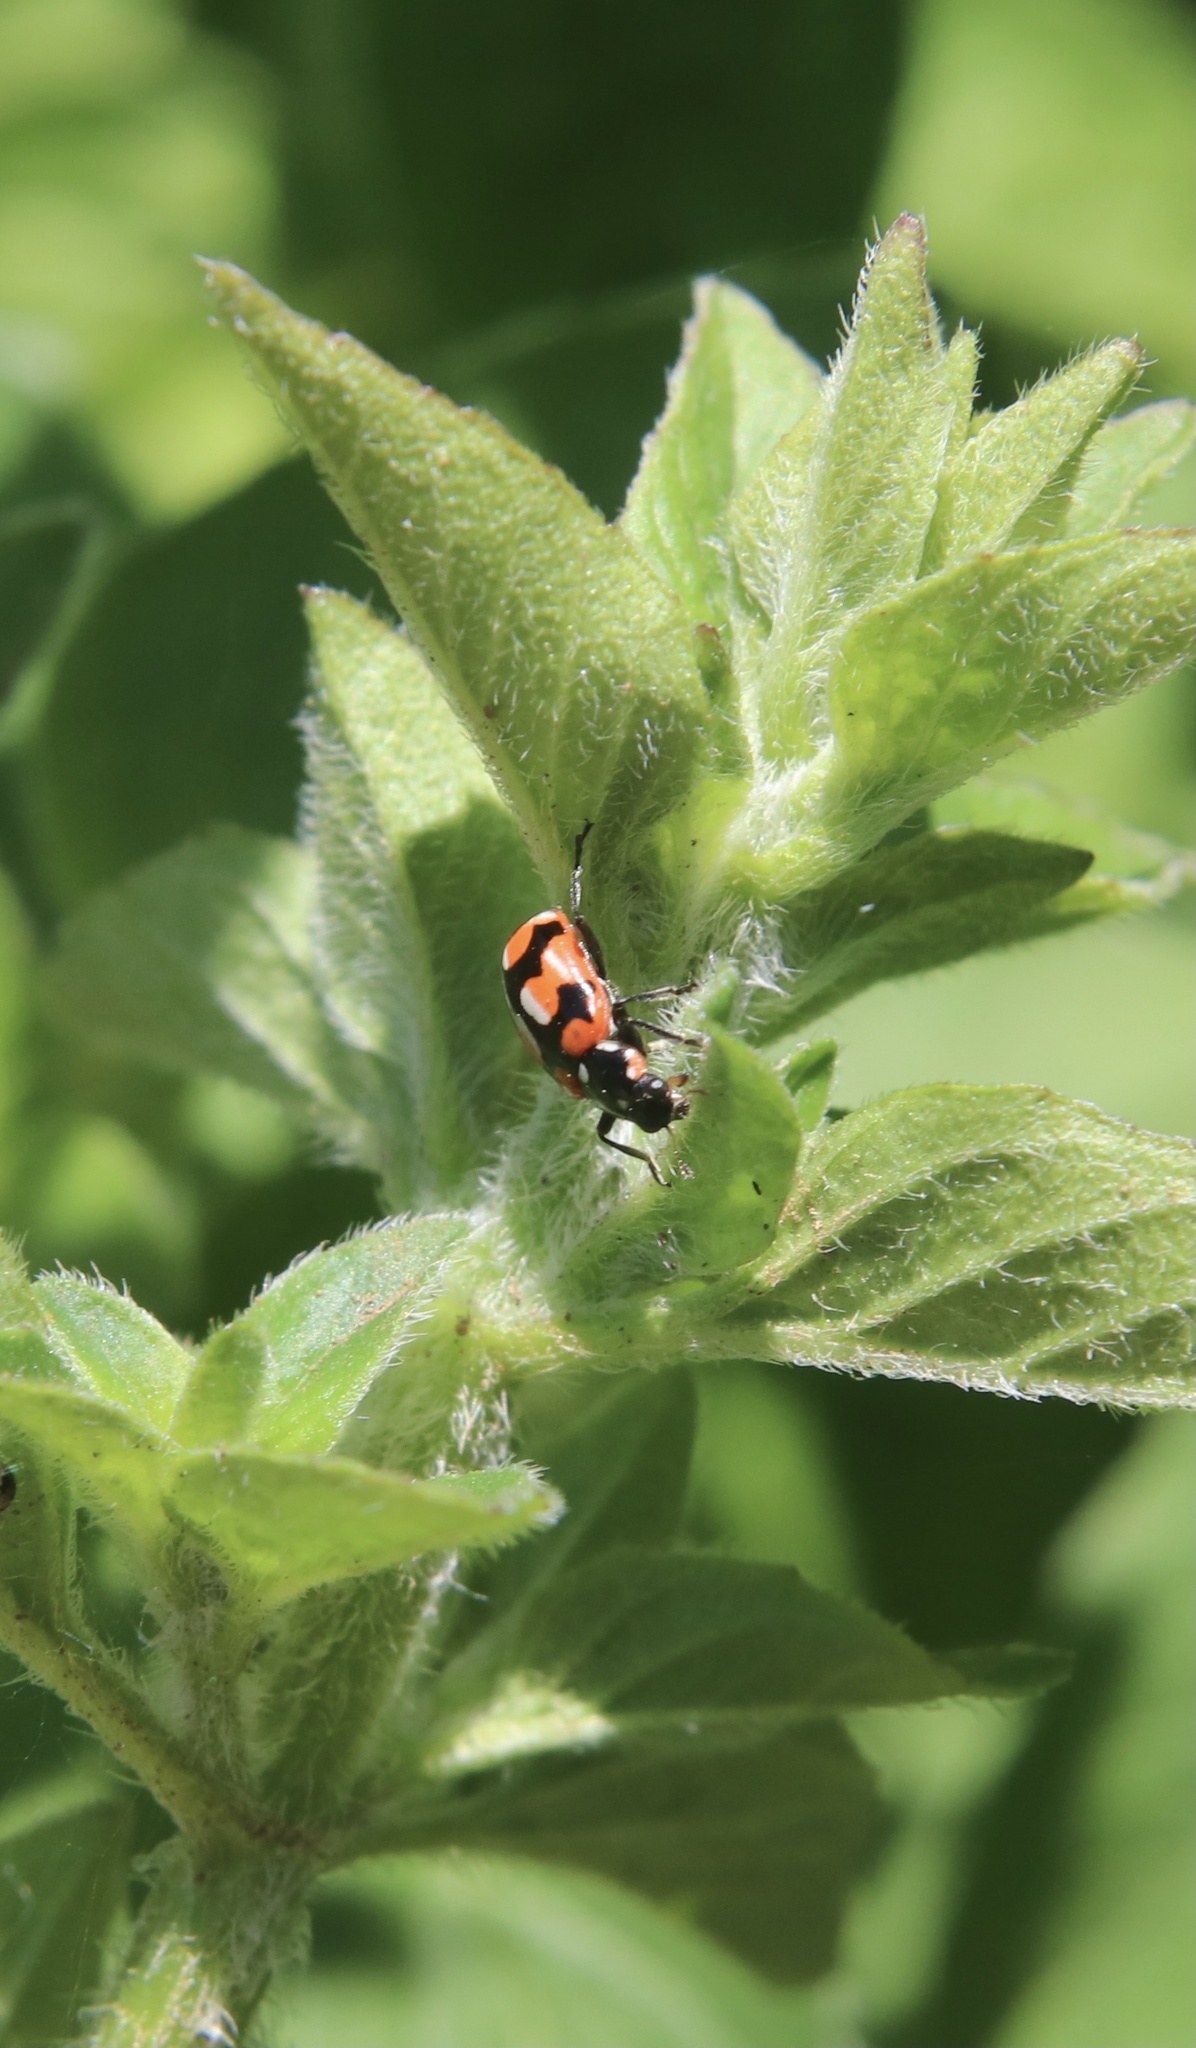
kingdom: Animalia
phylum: Arthropoda
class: Insecta
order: Coleoptera
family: Coccinellidae
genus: Eriopis
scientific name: Eriopis chilensis
